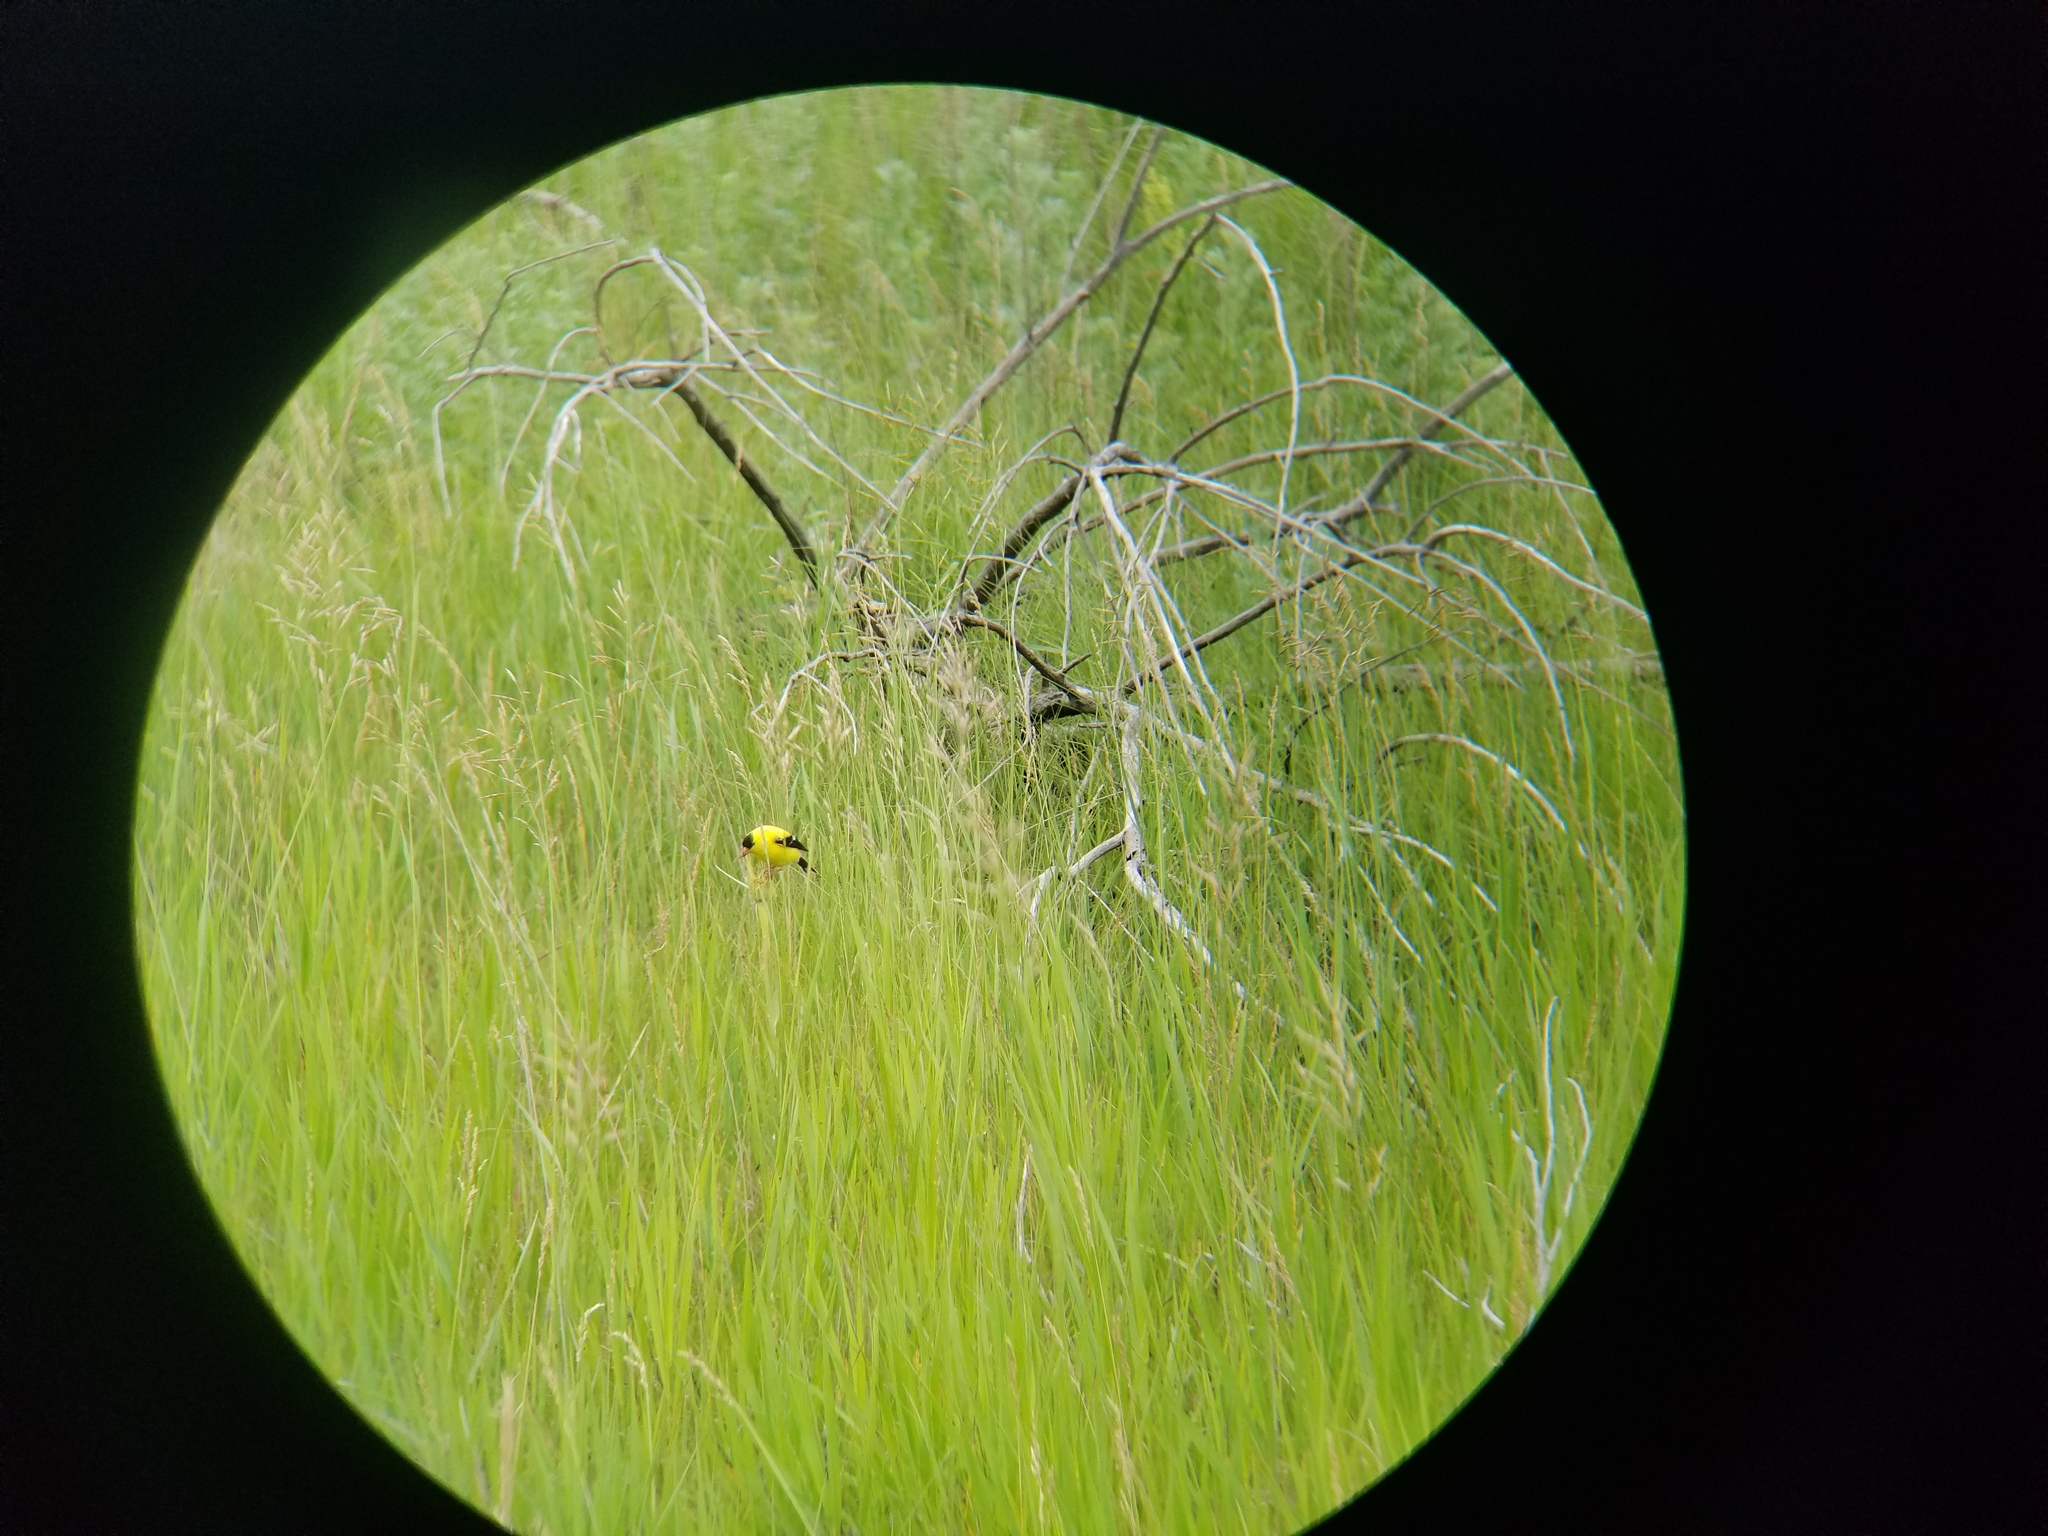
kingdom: Animalia
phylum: Chordata
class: Aves
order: Passeriformes
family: Fringillidae
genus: Spinus
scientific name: Spinus tristis
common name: American goldfinch
